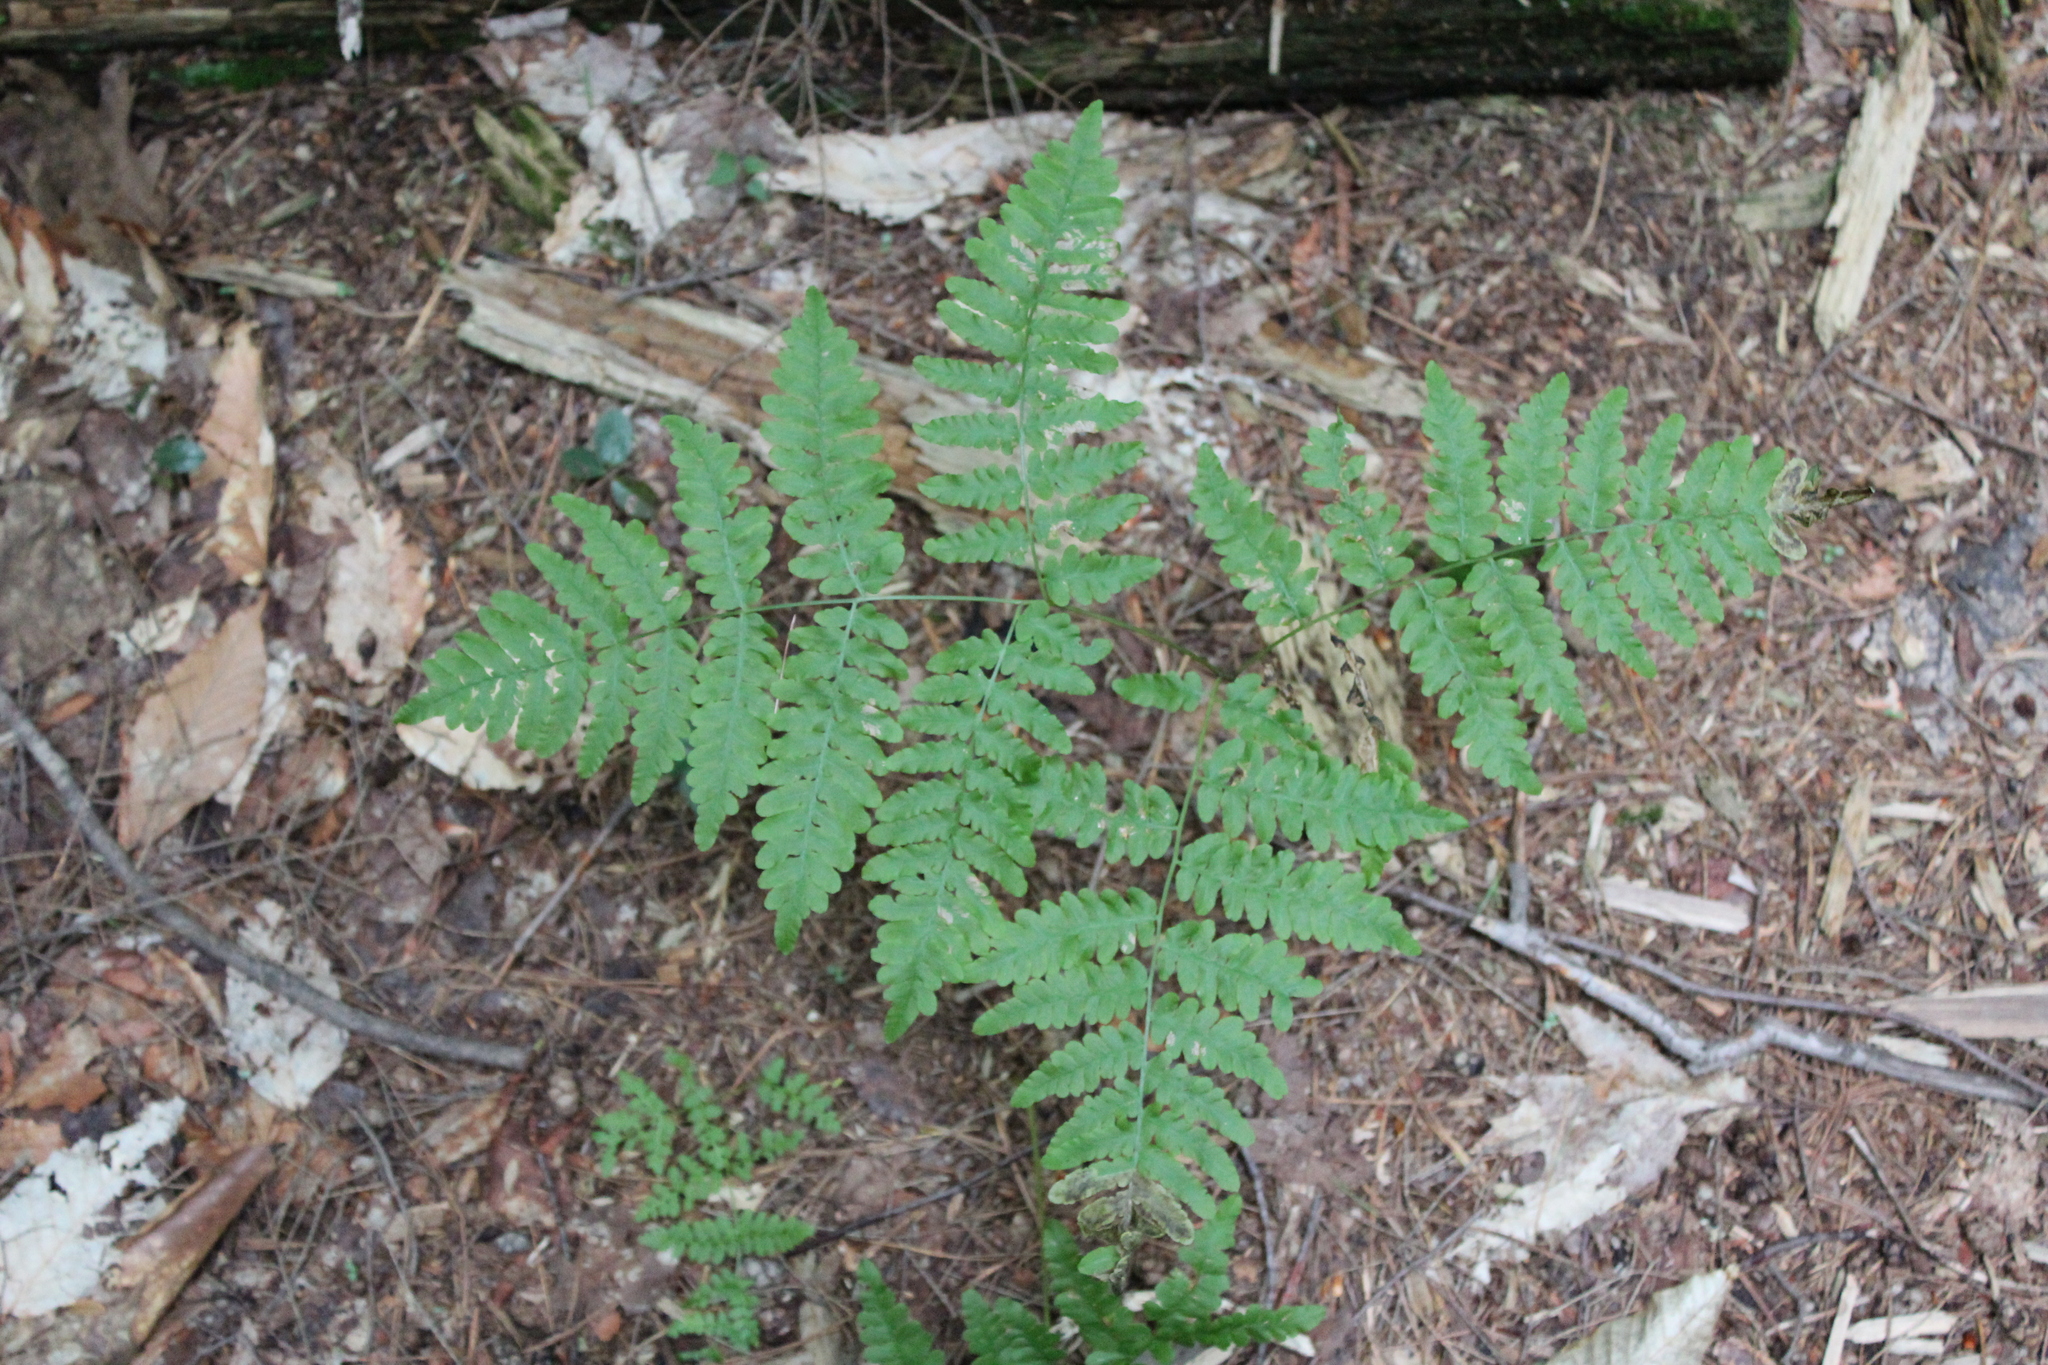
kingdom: Plantae
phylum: Tracheophyta
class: Polypodiopsida
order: Polypodiales
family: Dennstaedtiaceae
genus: Pteridium
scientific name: Pteridium aquilinum
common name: Bracken
